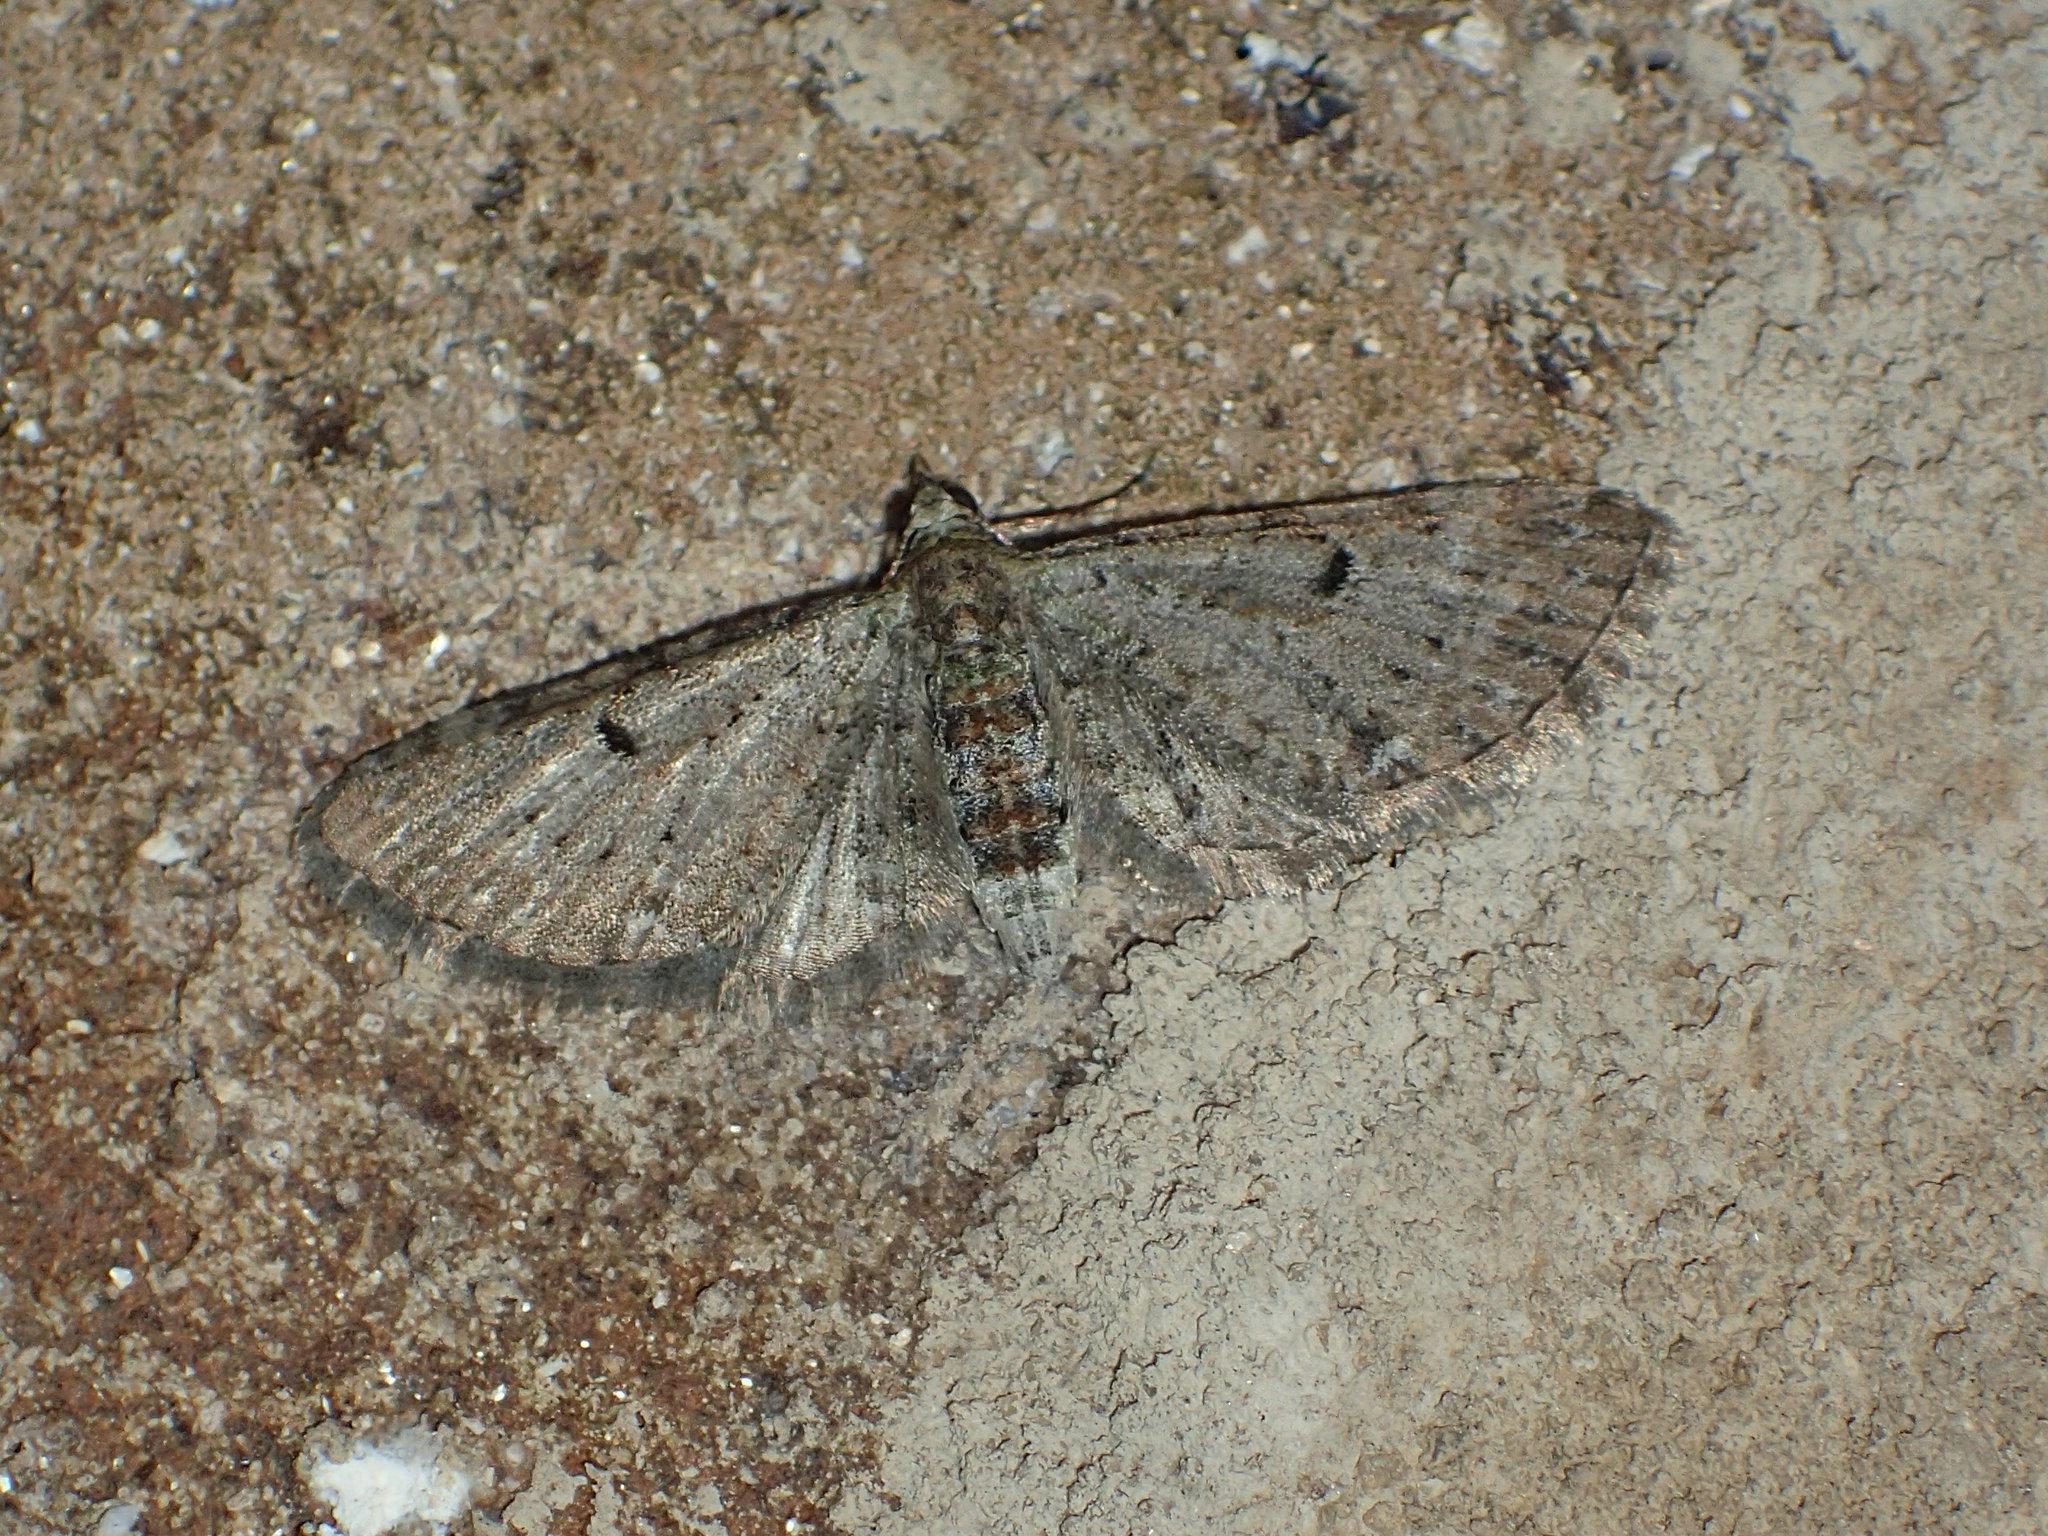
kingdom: Animalia
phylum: Arthropoda
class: Insecta
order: Lepidoptera
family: Geometridae
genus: Eupithecia
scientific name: Eupithecia miserulata
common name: Common eupithecia
